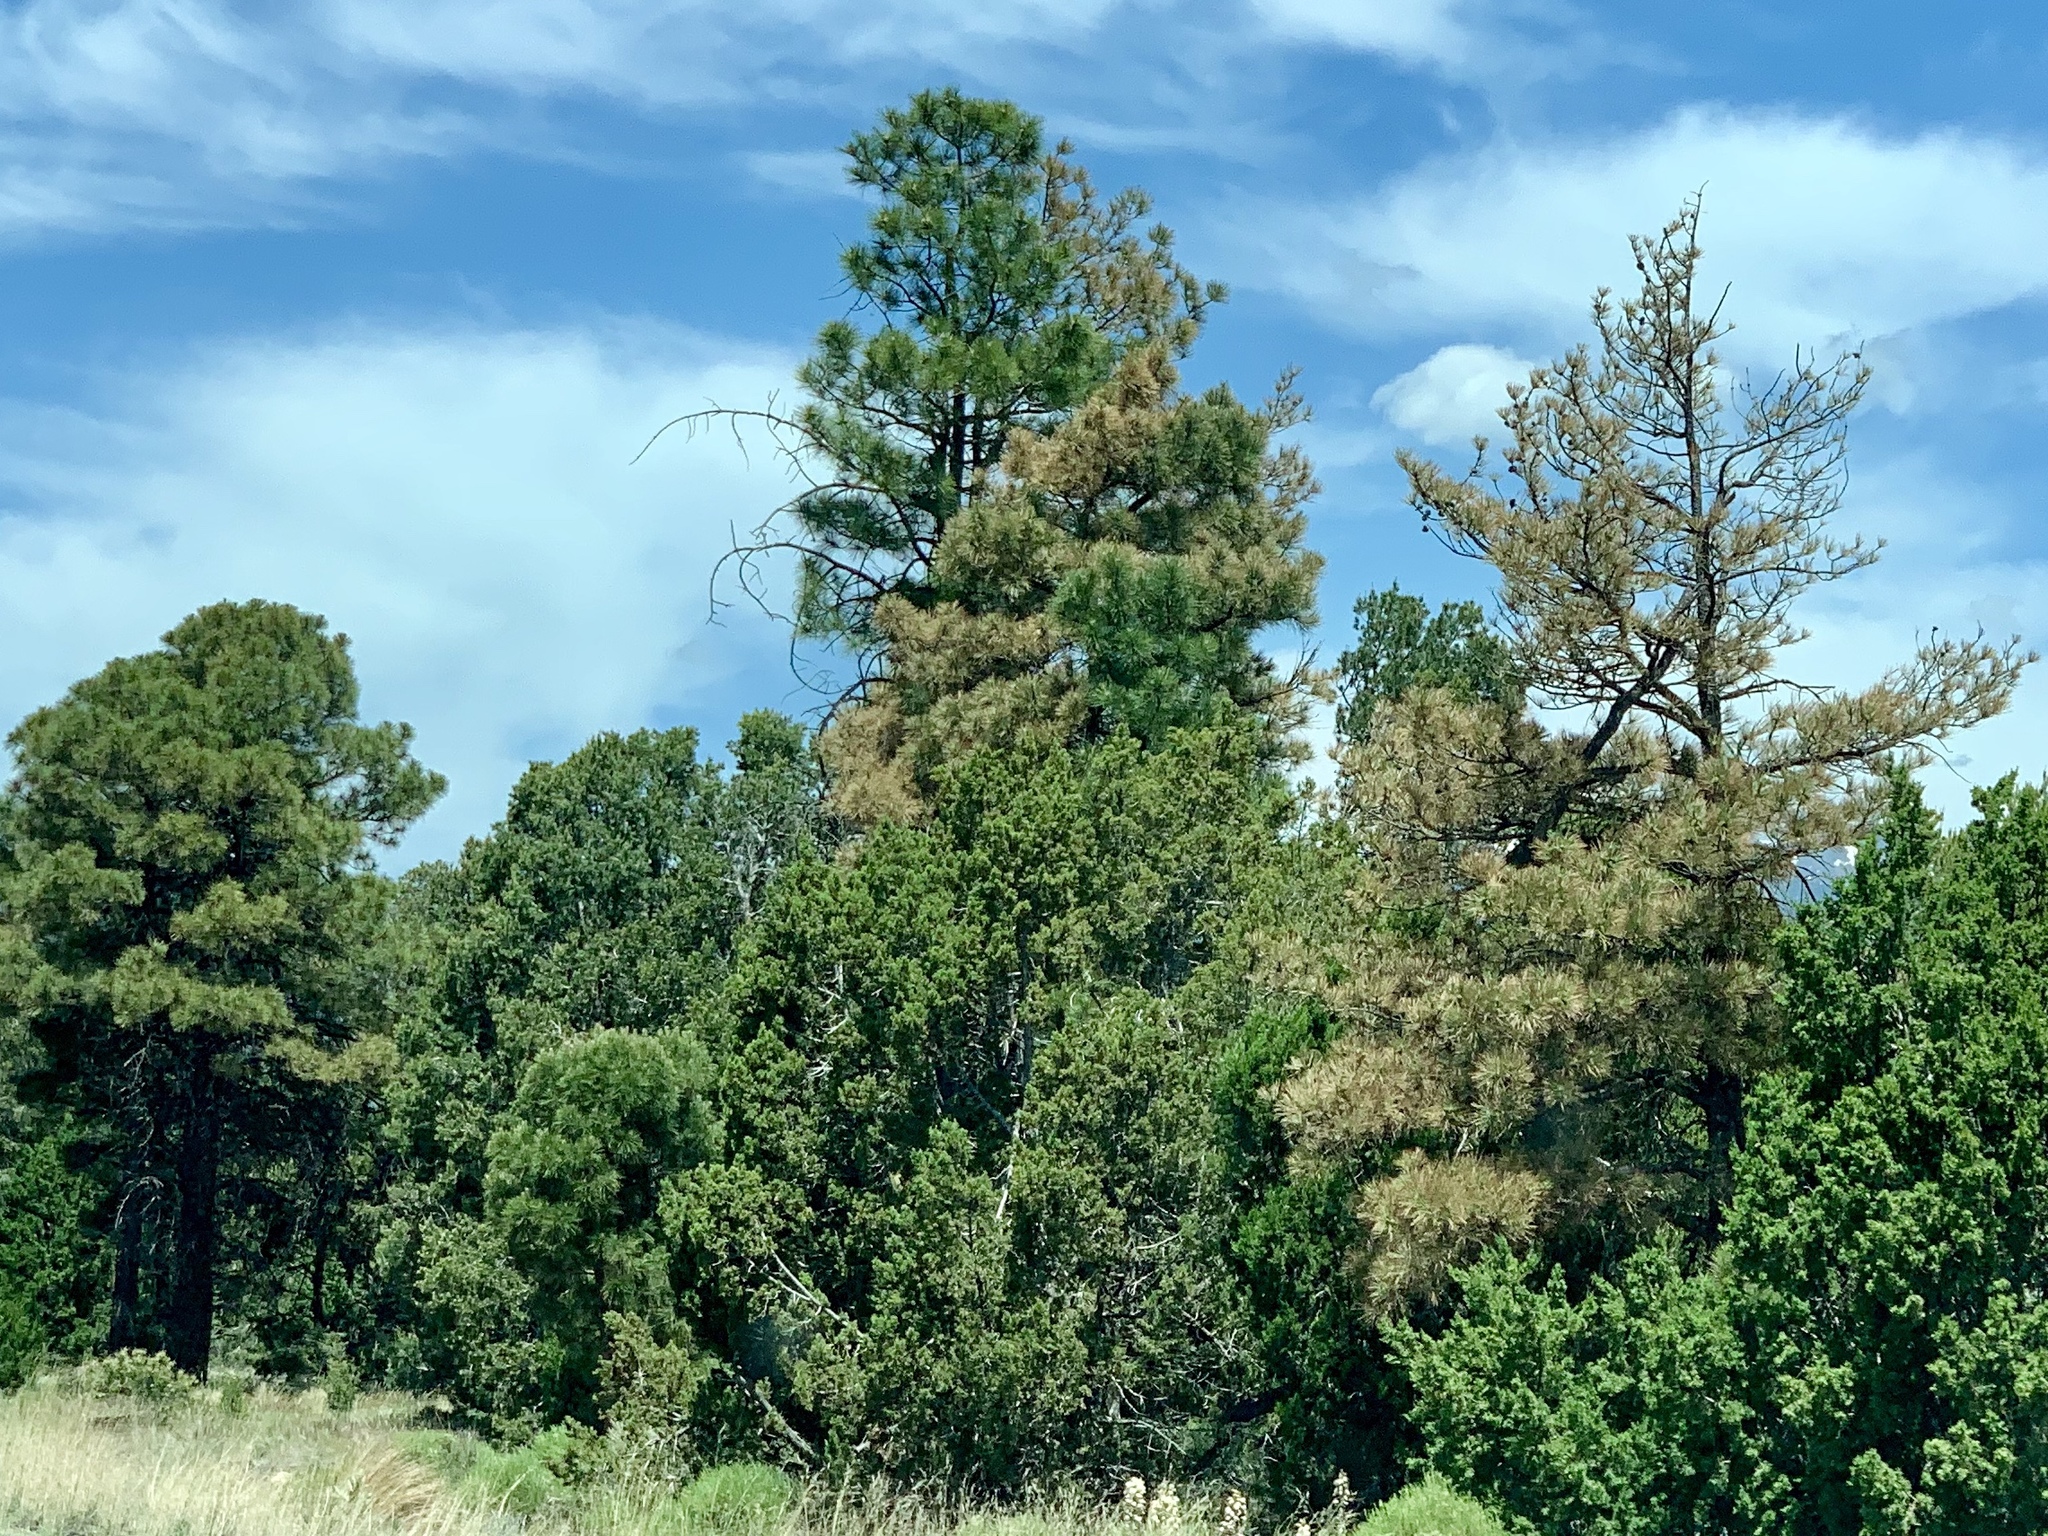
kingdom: Plantae
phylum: Tracheophyta
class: Pinopsida
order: Pinales
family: Pinaceae
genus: Pinus
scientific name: Pinus ponderosa
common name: Western yellow-pine
